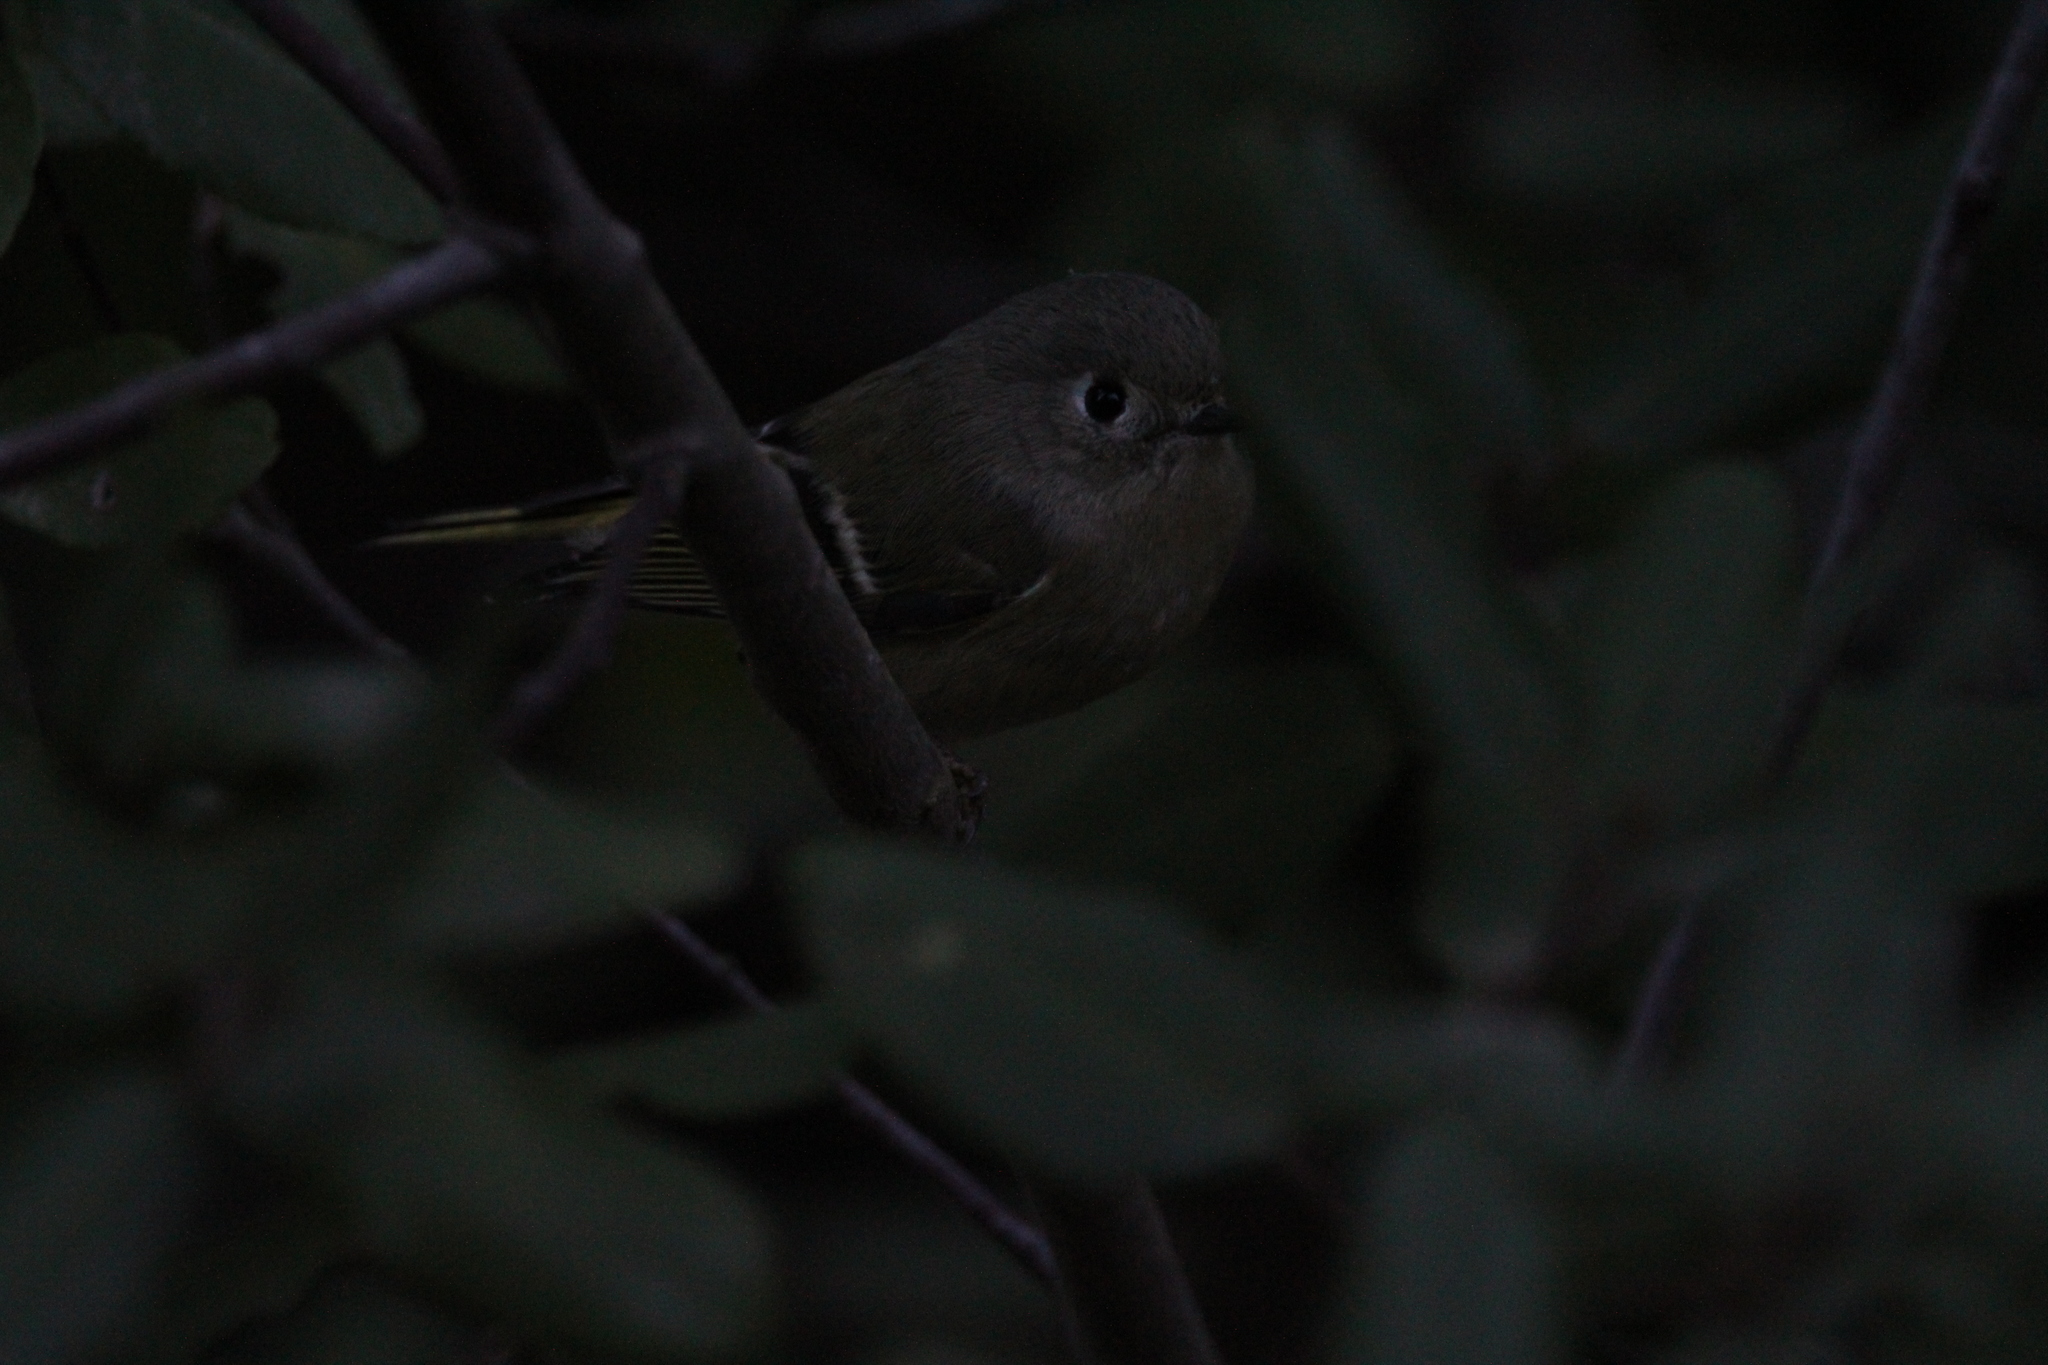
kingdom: Animalia
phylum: Chordata
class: Aves
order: Passeriformes
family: Regulidae
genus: Regulus
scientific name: Regulus calendula
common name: Ruby-crowned kinglet
